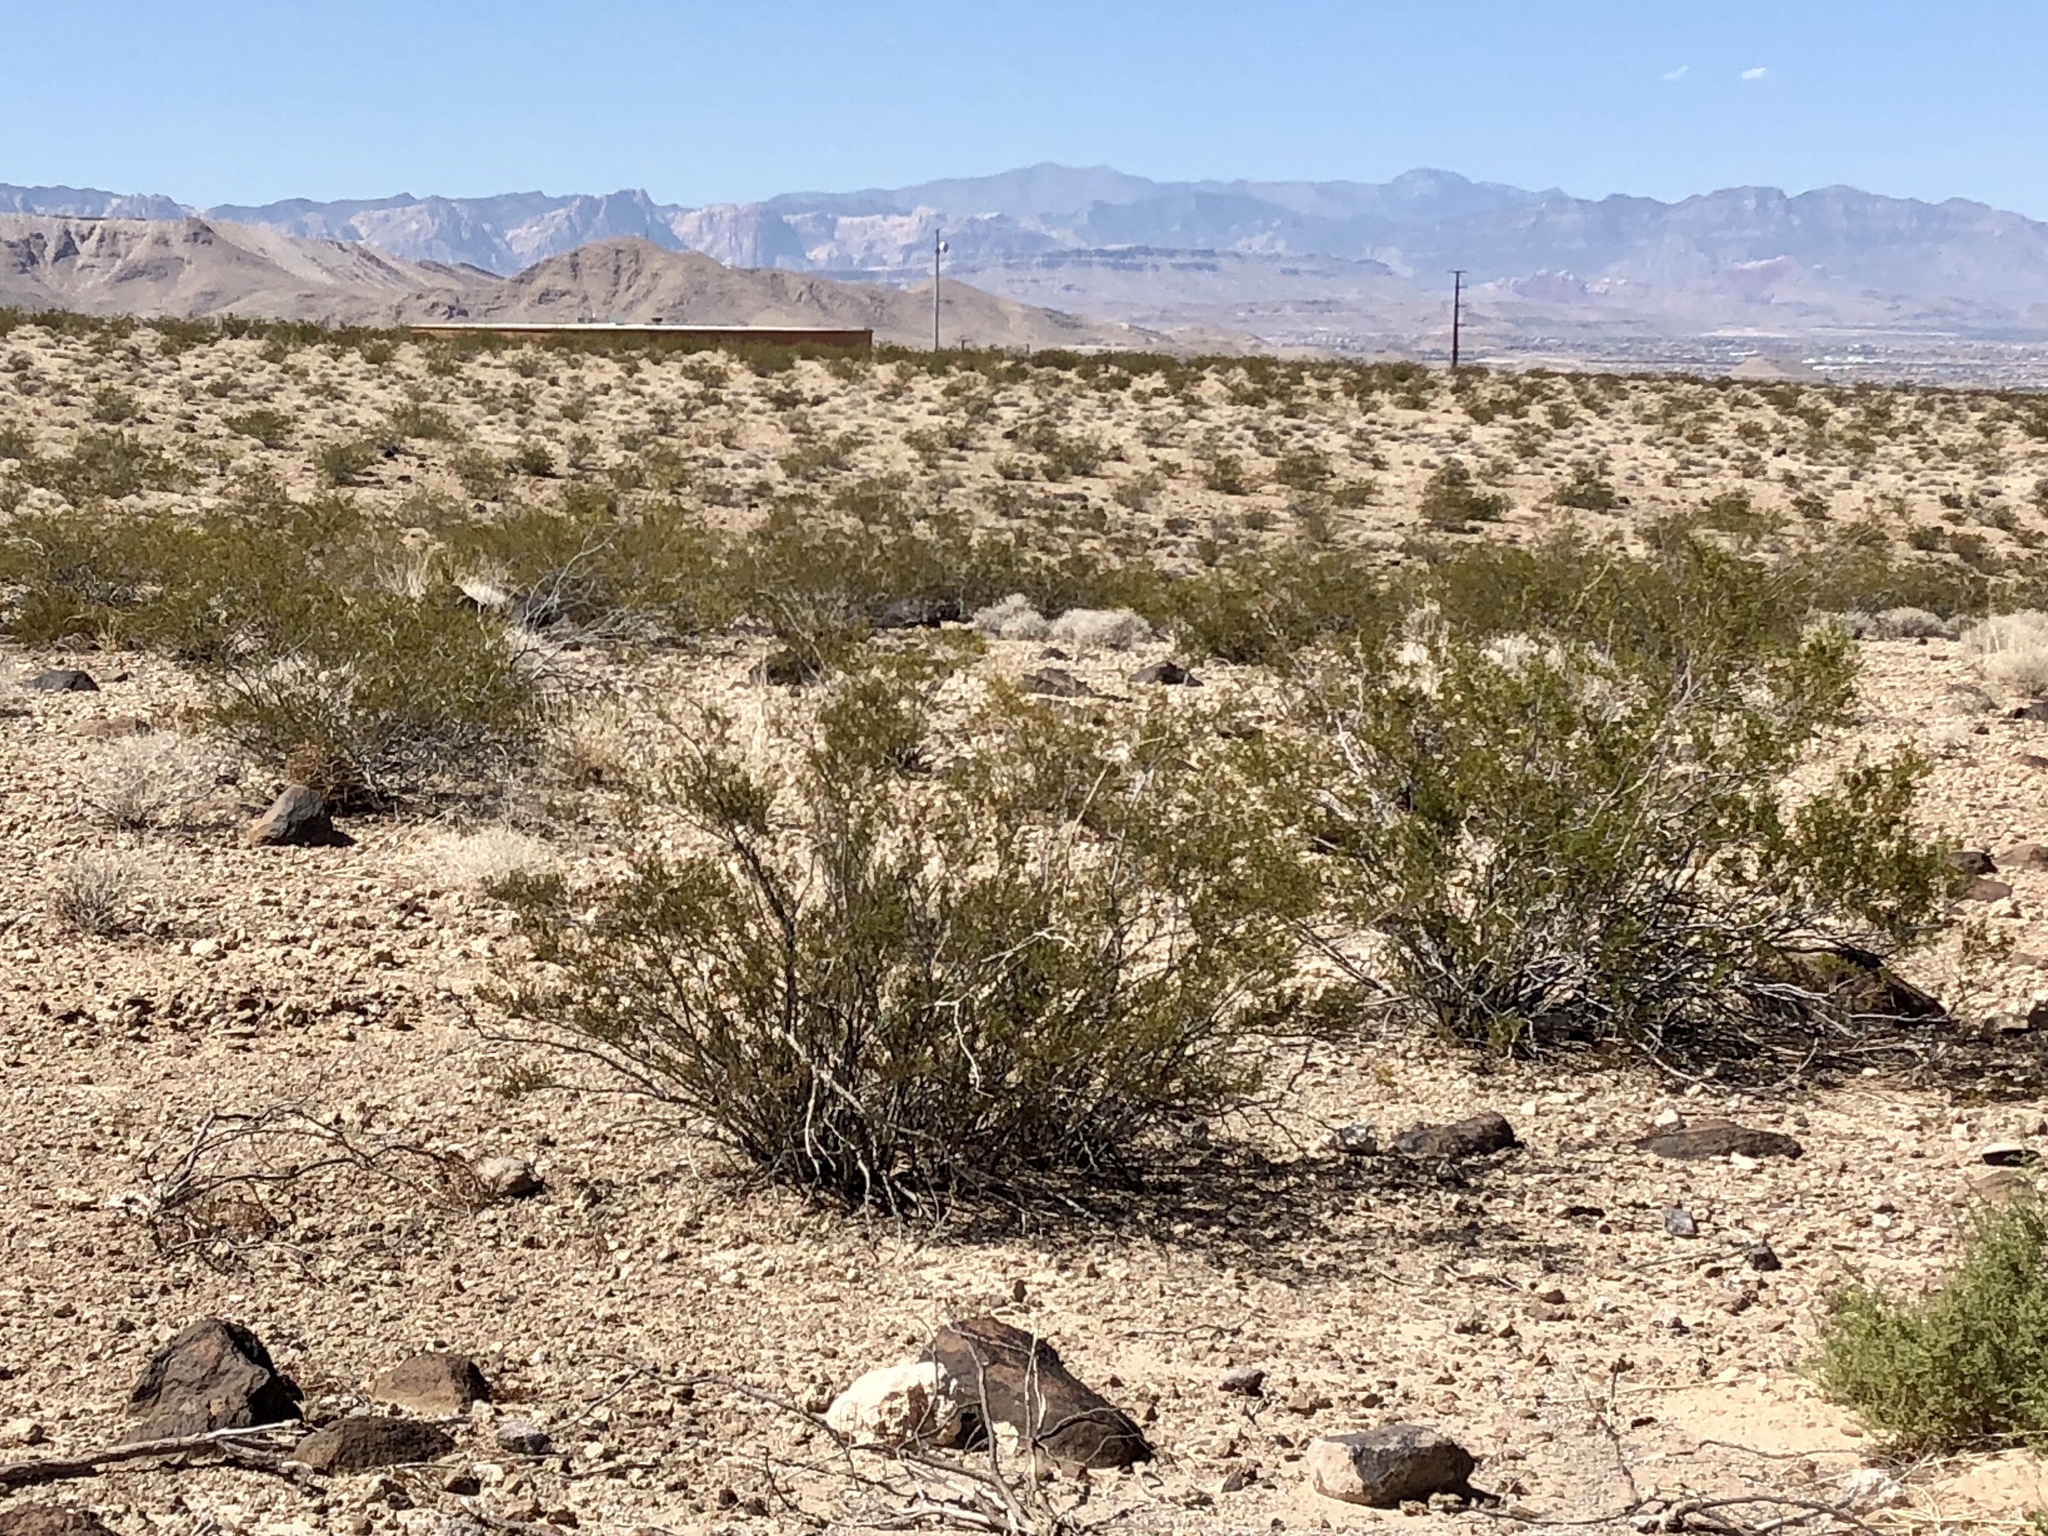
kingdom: Plantae
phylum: Tracheophyta
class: Magnoliopsida
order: Zygophyllales
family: Zygophyllaceae
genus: Larrea
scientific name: Larrea tridentata
